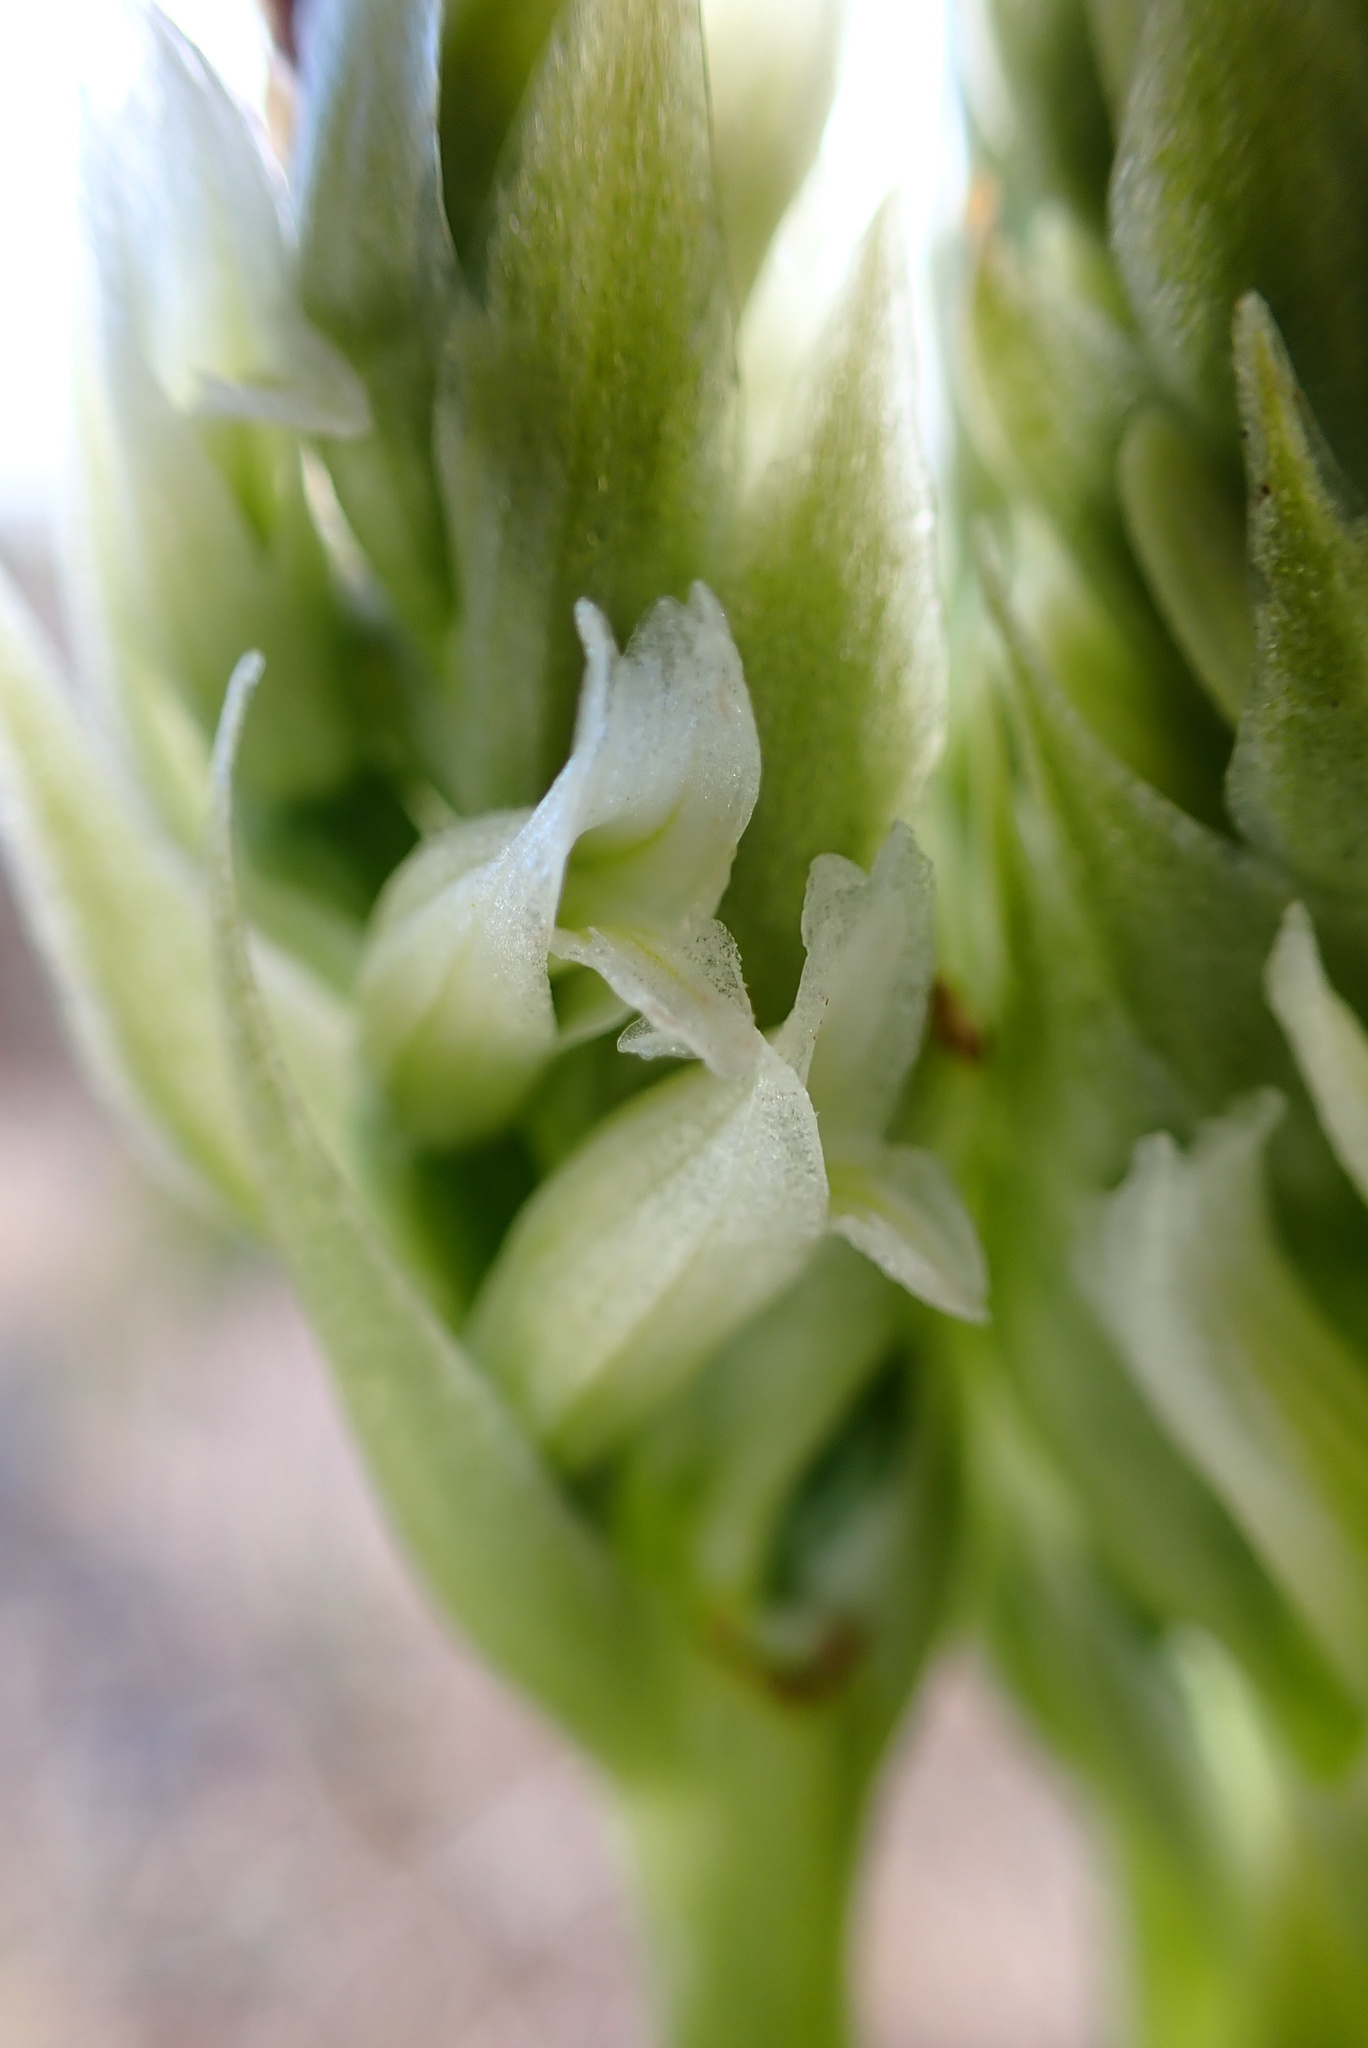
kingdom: Plantae
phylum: Tracheophyta
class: Liliopsida
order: Asparagales
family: Orchidaceae
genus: Spiranthes
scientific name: Spiranthes romanzoffiana
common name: Irish lady's-tresses
